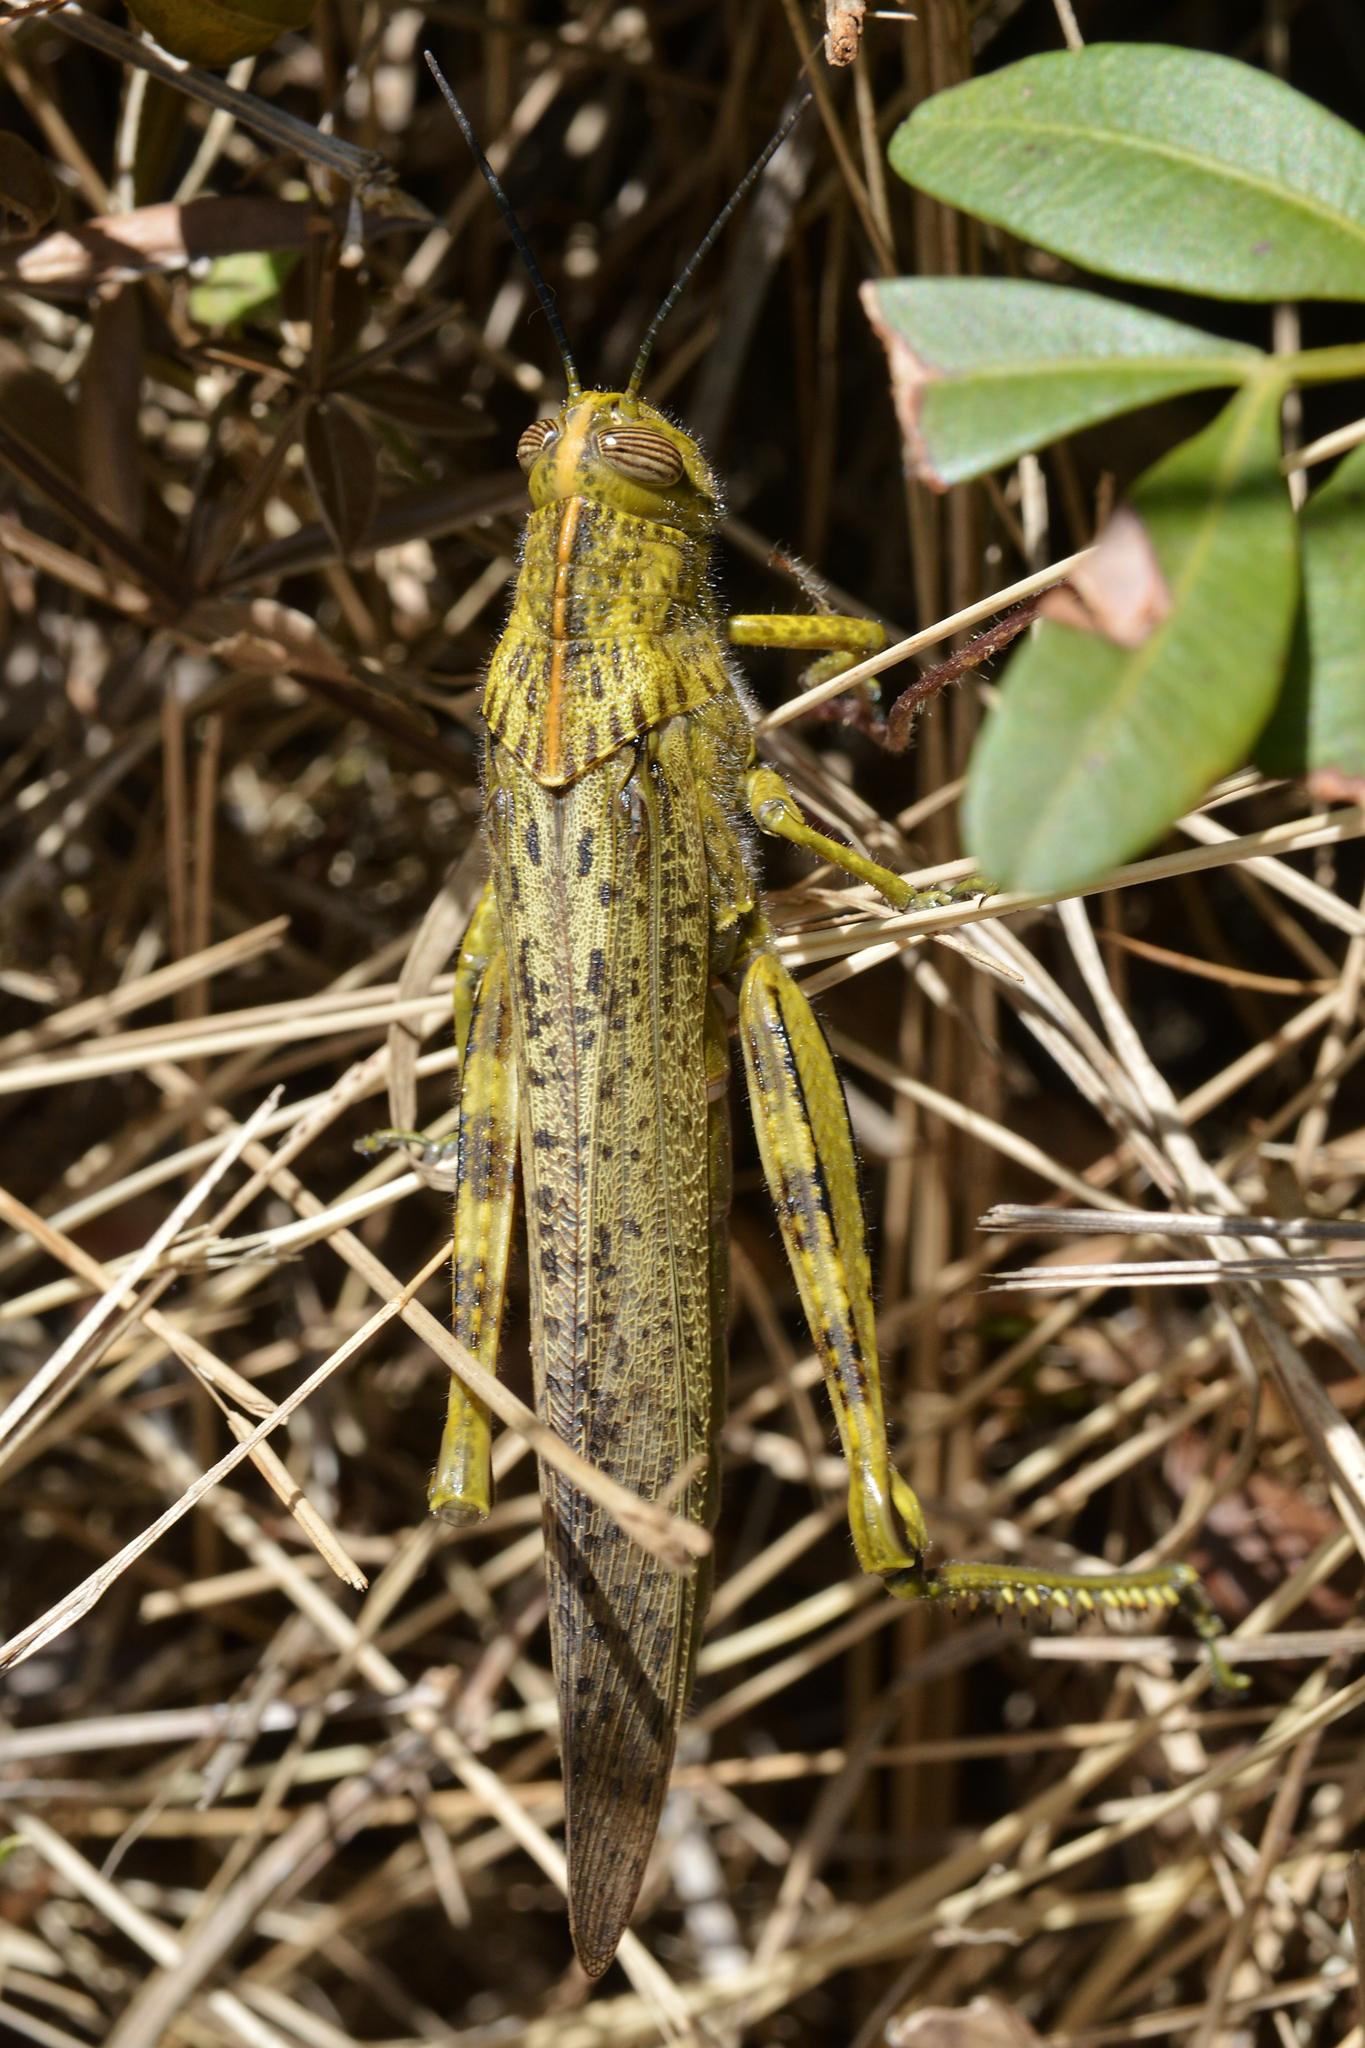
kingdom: Animalia
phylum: Arthropoda
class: Insecta
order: Orthoptera
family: Acrididae
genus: Anacridium
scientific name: Anacridium aegyptium
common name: Egyptian grasshopper
